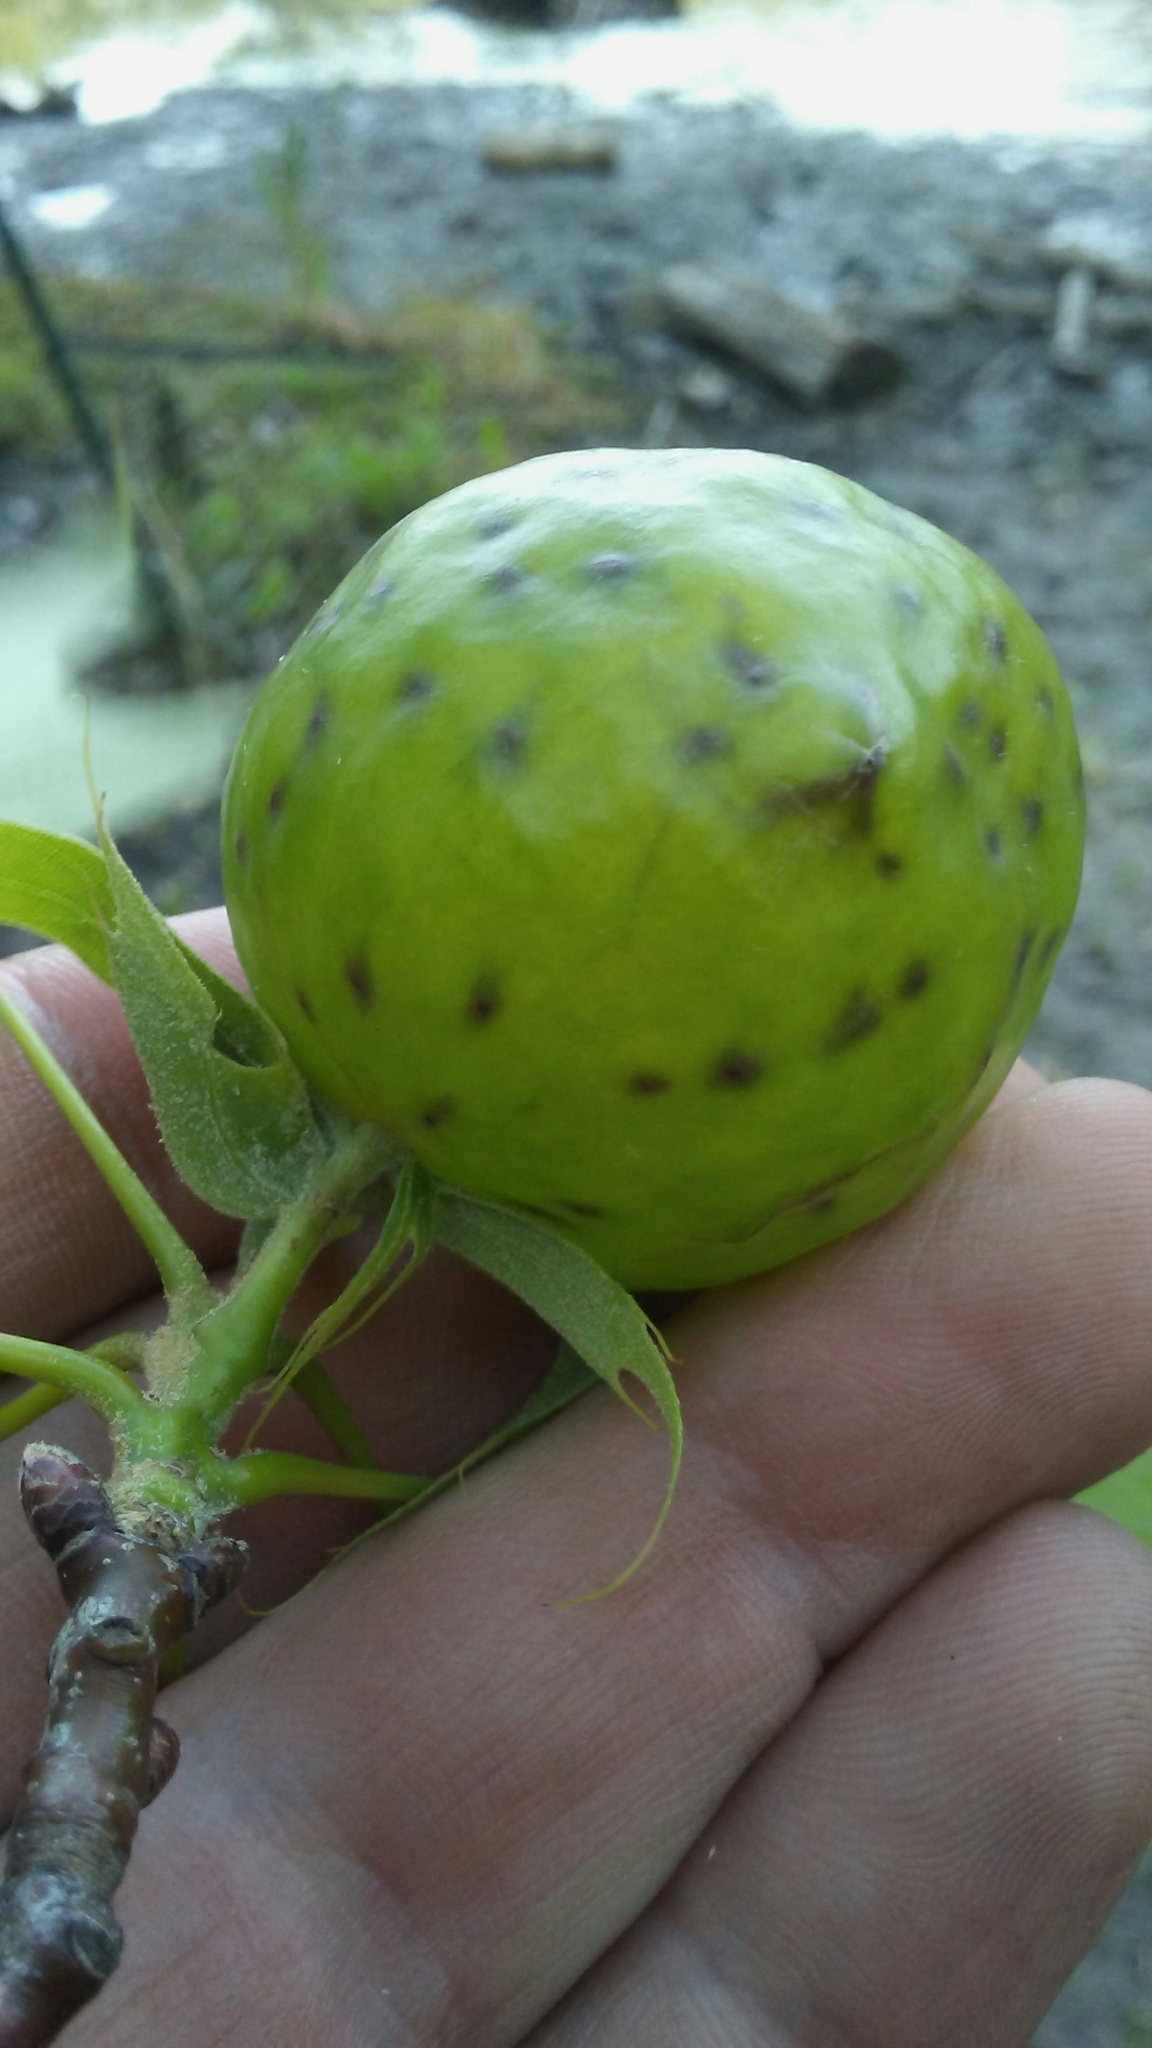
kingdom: Animalia
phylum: Arthropoda
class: Insecta
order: Hymenoptera
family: Cynipidae
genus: Amphibolips
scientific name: Amphibolips
